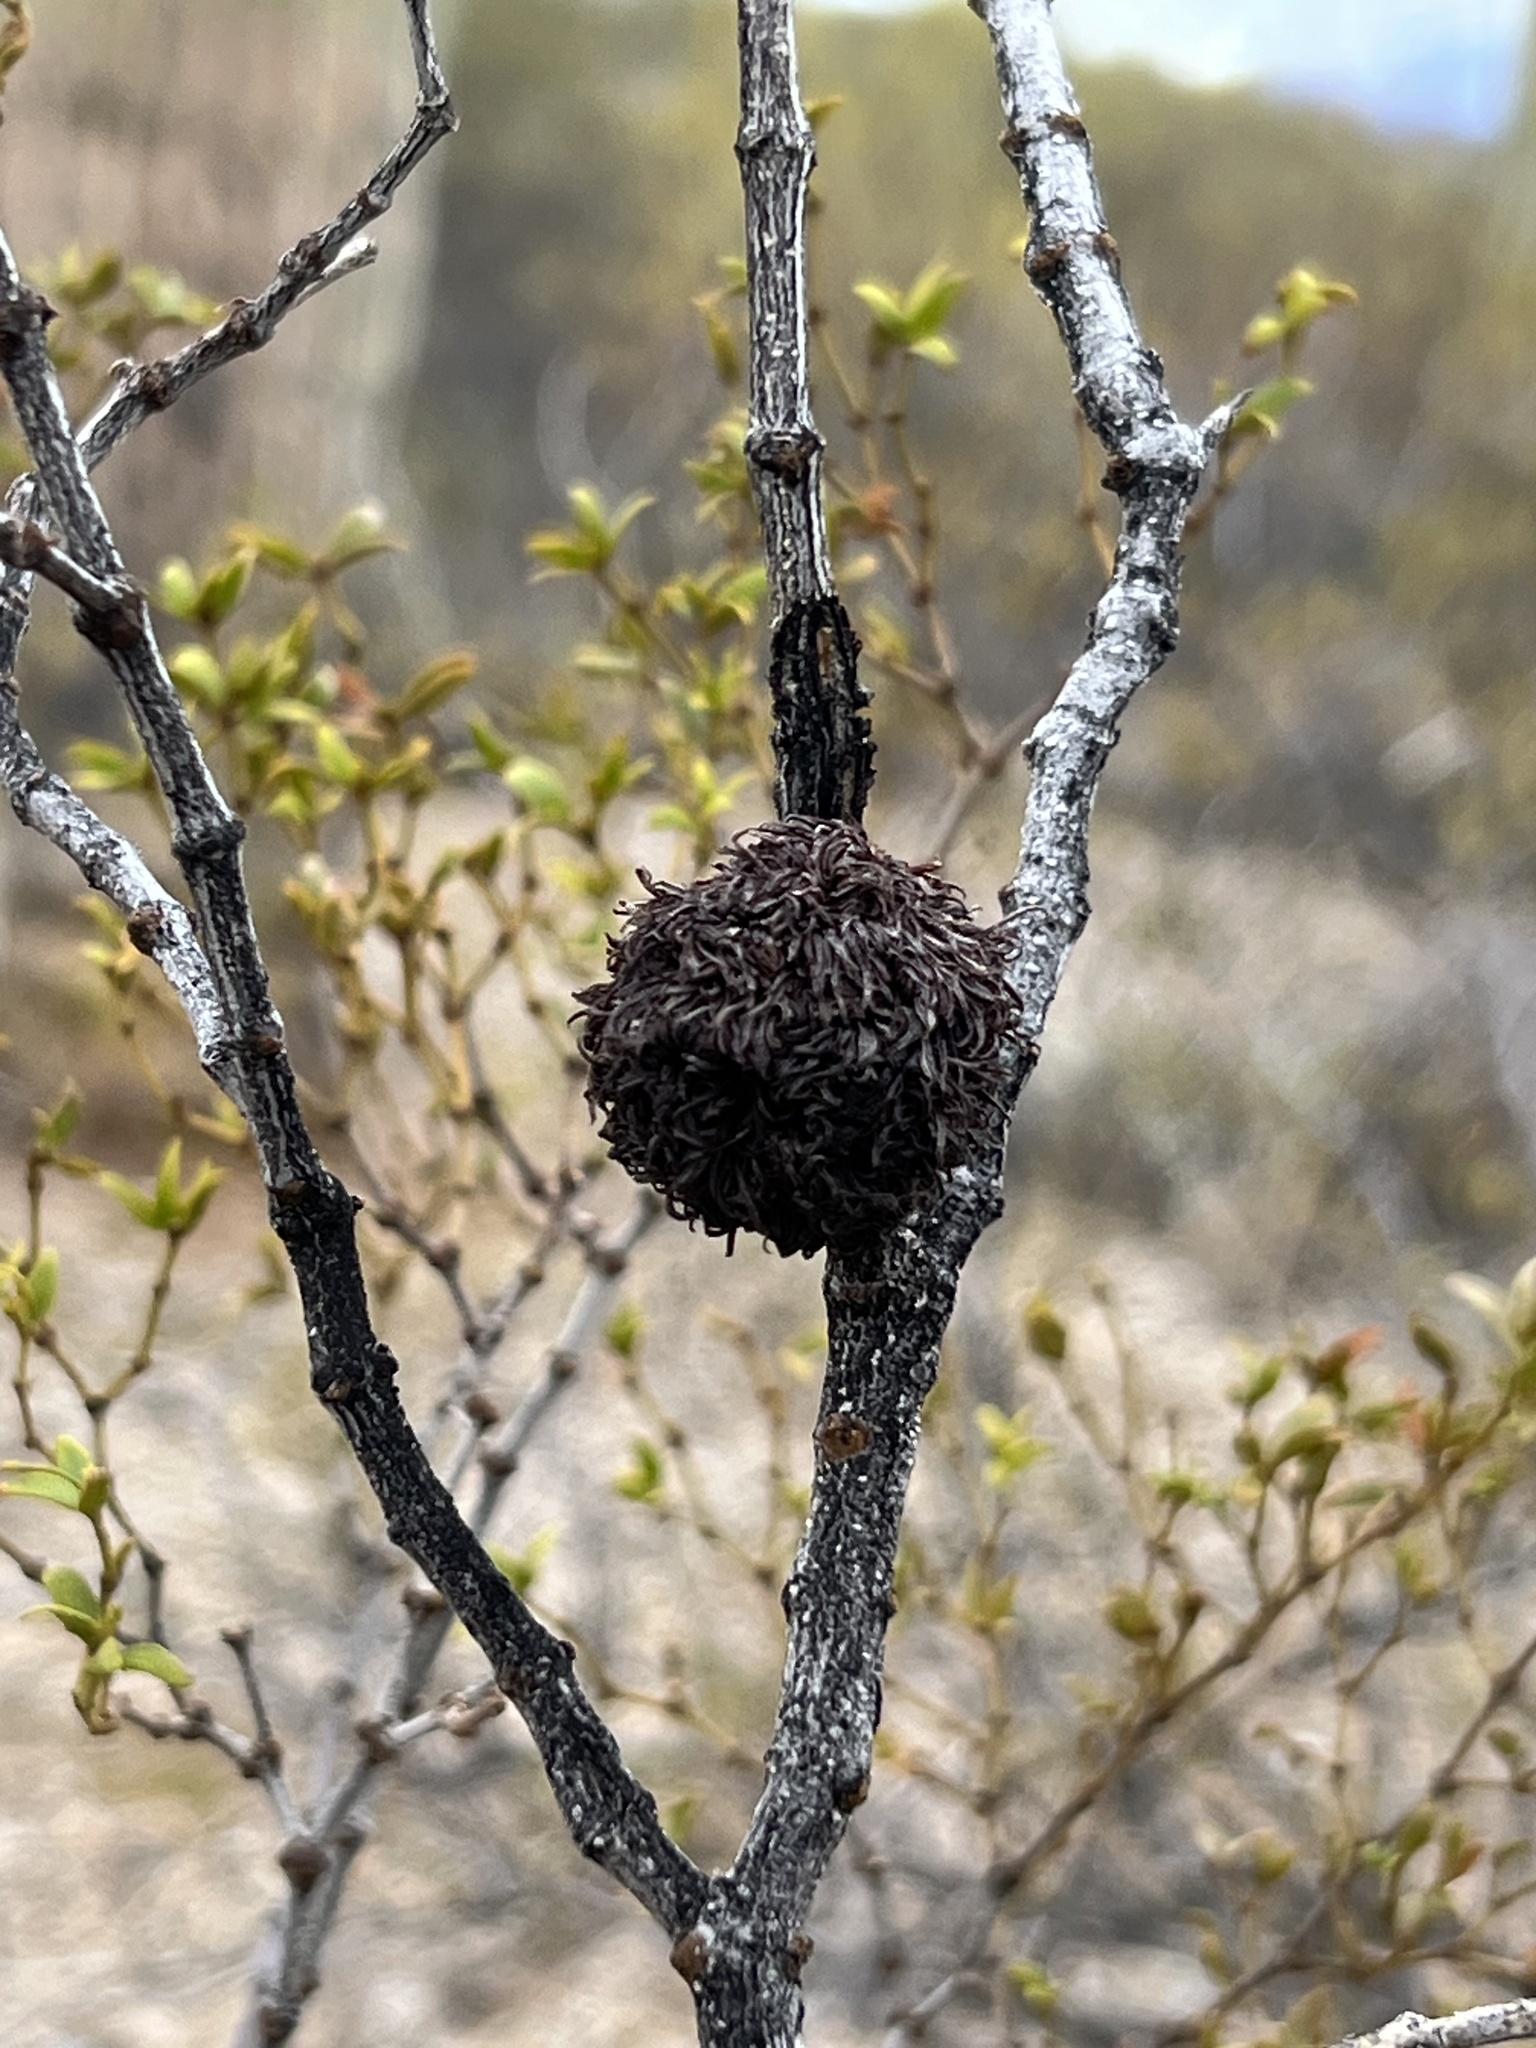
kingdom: Animalia
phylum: Arthropoda
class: Insecta
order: Diptera
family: Cecidomyiidae
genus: Asphondylia
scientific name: Asphondylia auripila
